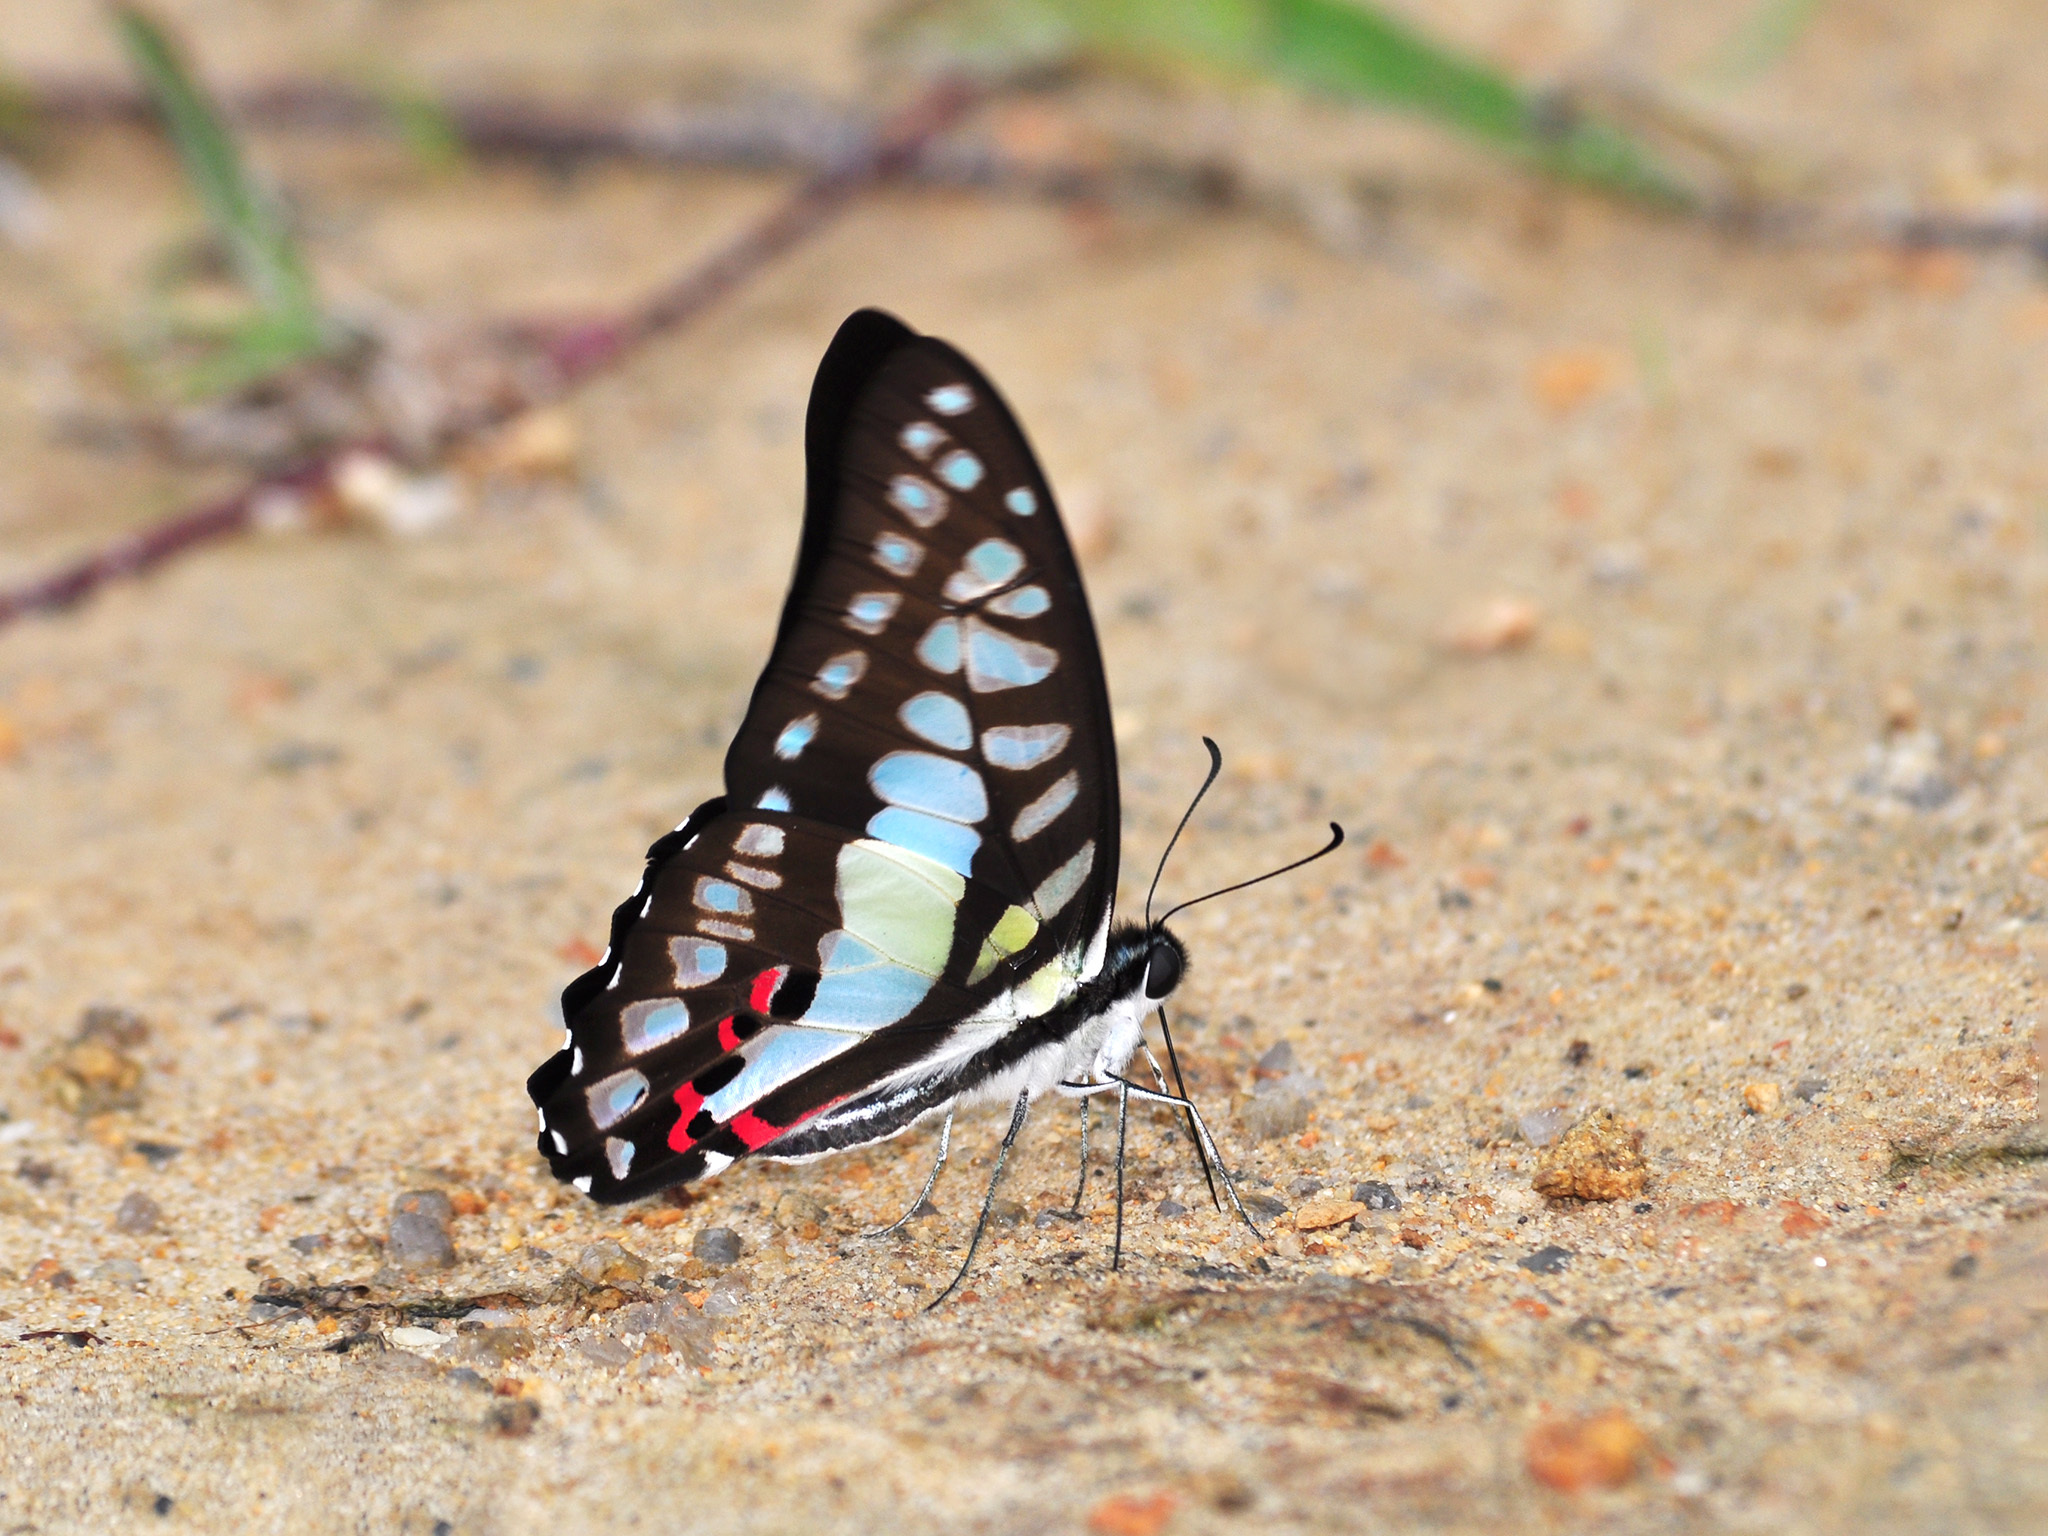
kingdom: Animalia
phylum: Arthropoda
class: Insecta
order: Lepidoptera
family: Papilionidae
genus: Graphium
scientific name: Graphium evemon
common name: Lesser jay
